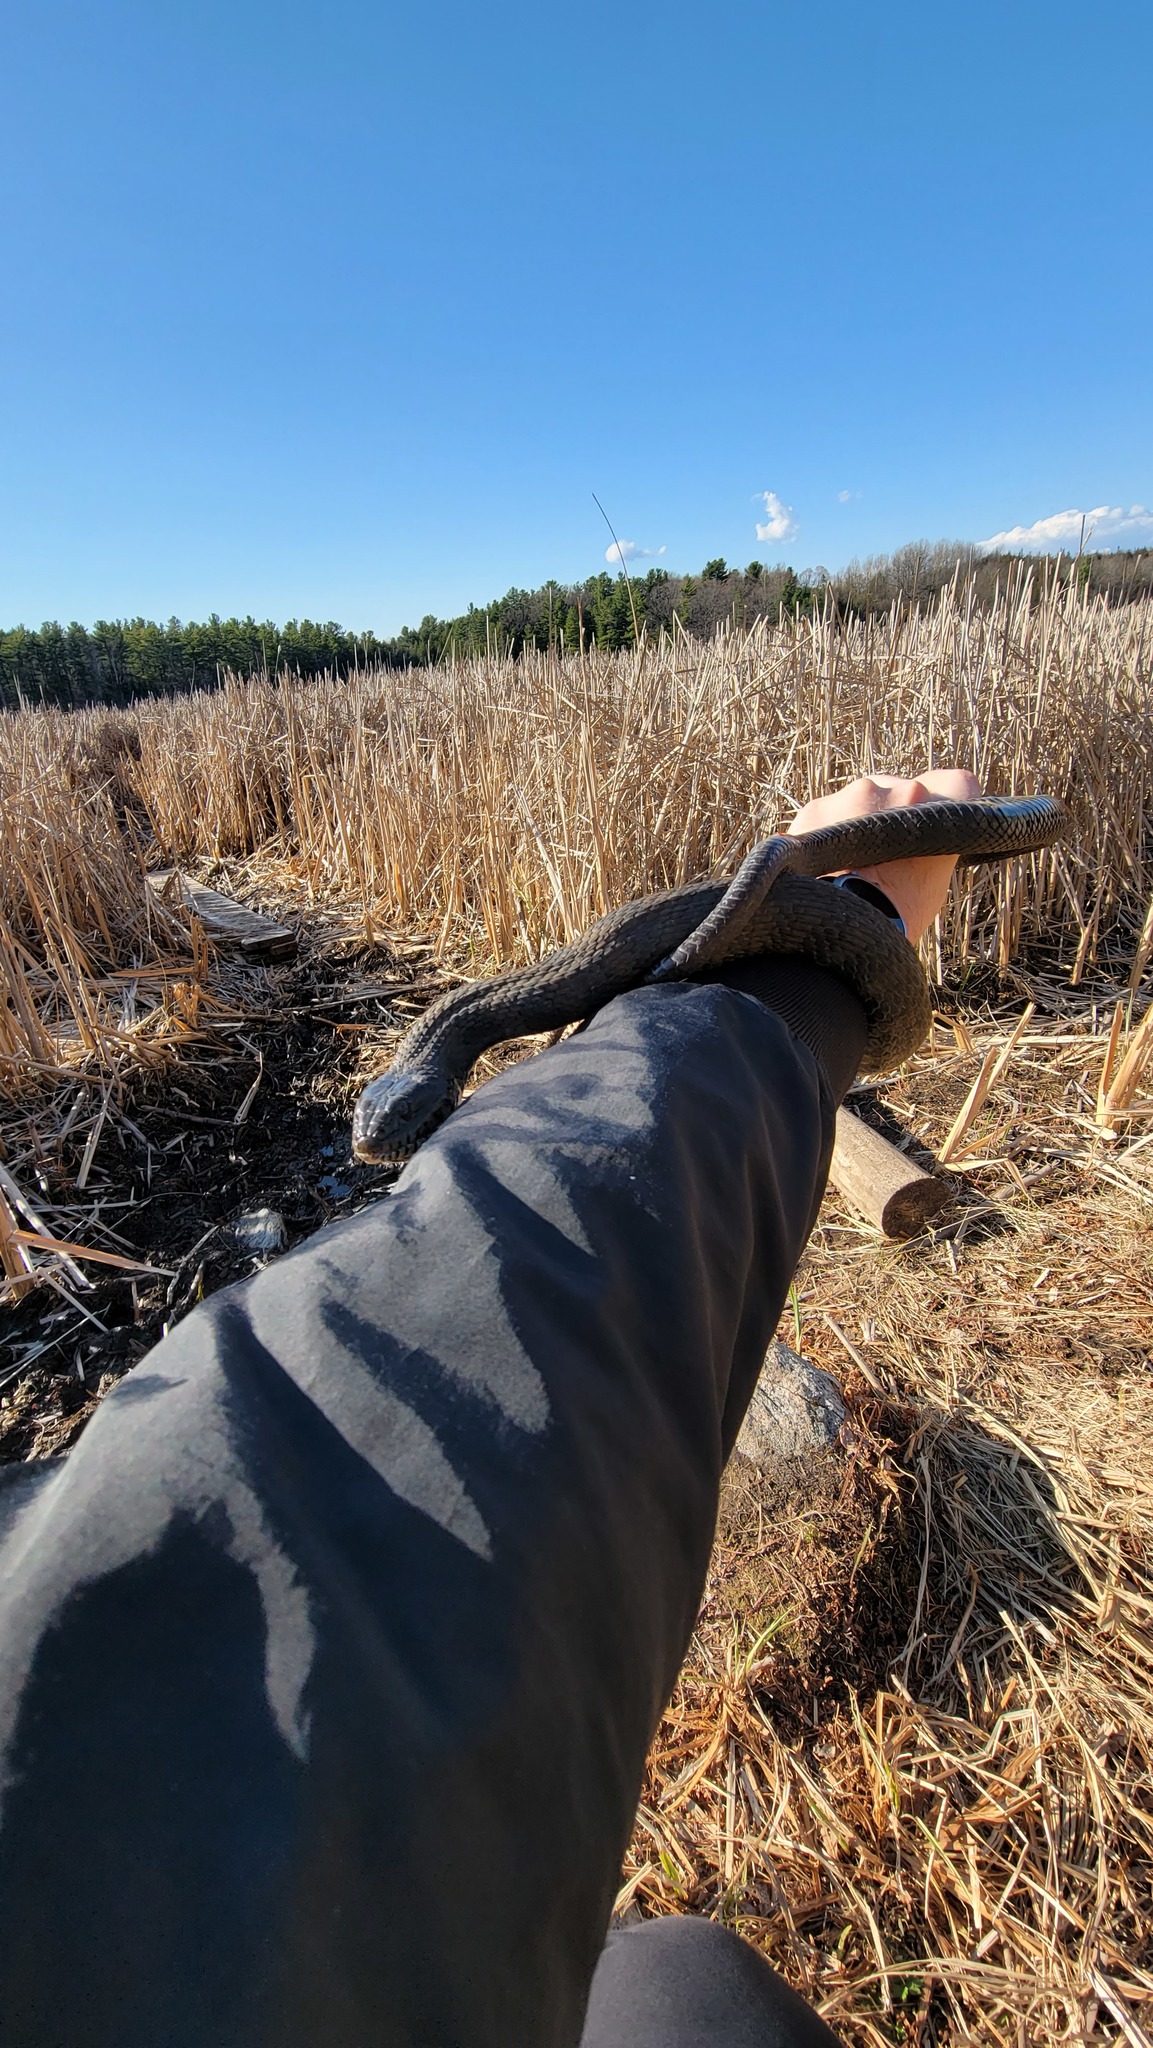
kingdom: Animalia
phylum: Chordata
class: Squamata
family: Colubridae
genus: Nerodia
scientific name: Nerodia sipedon
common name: Northern water snake
